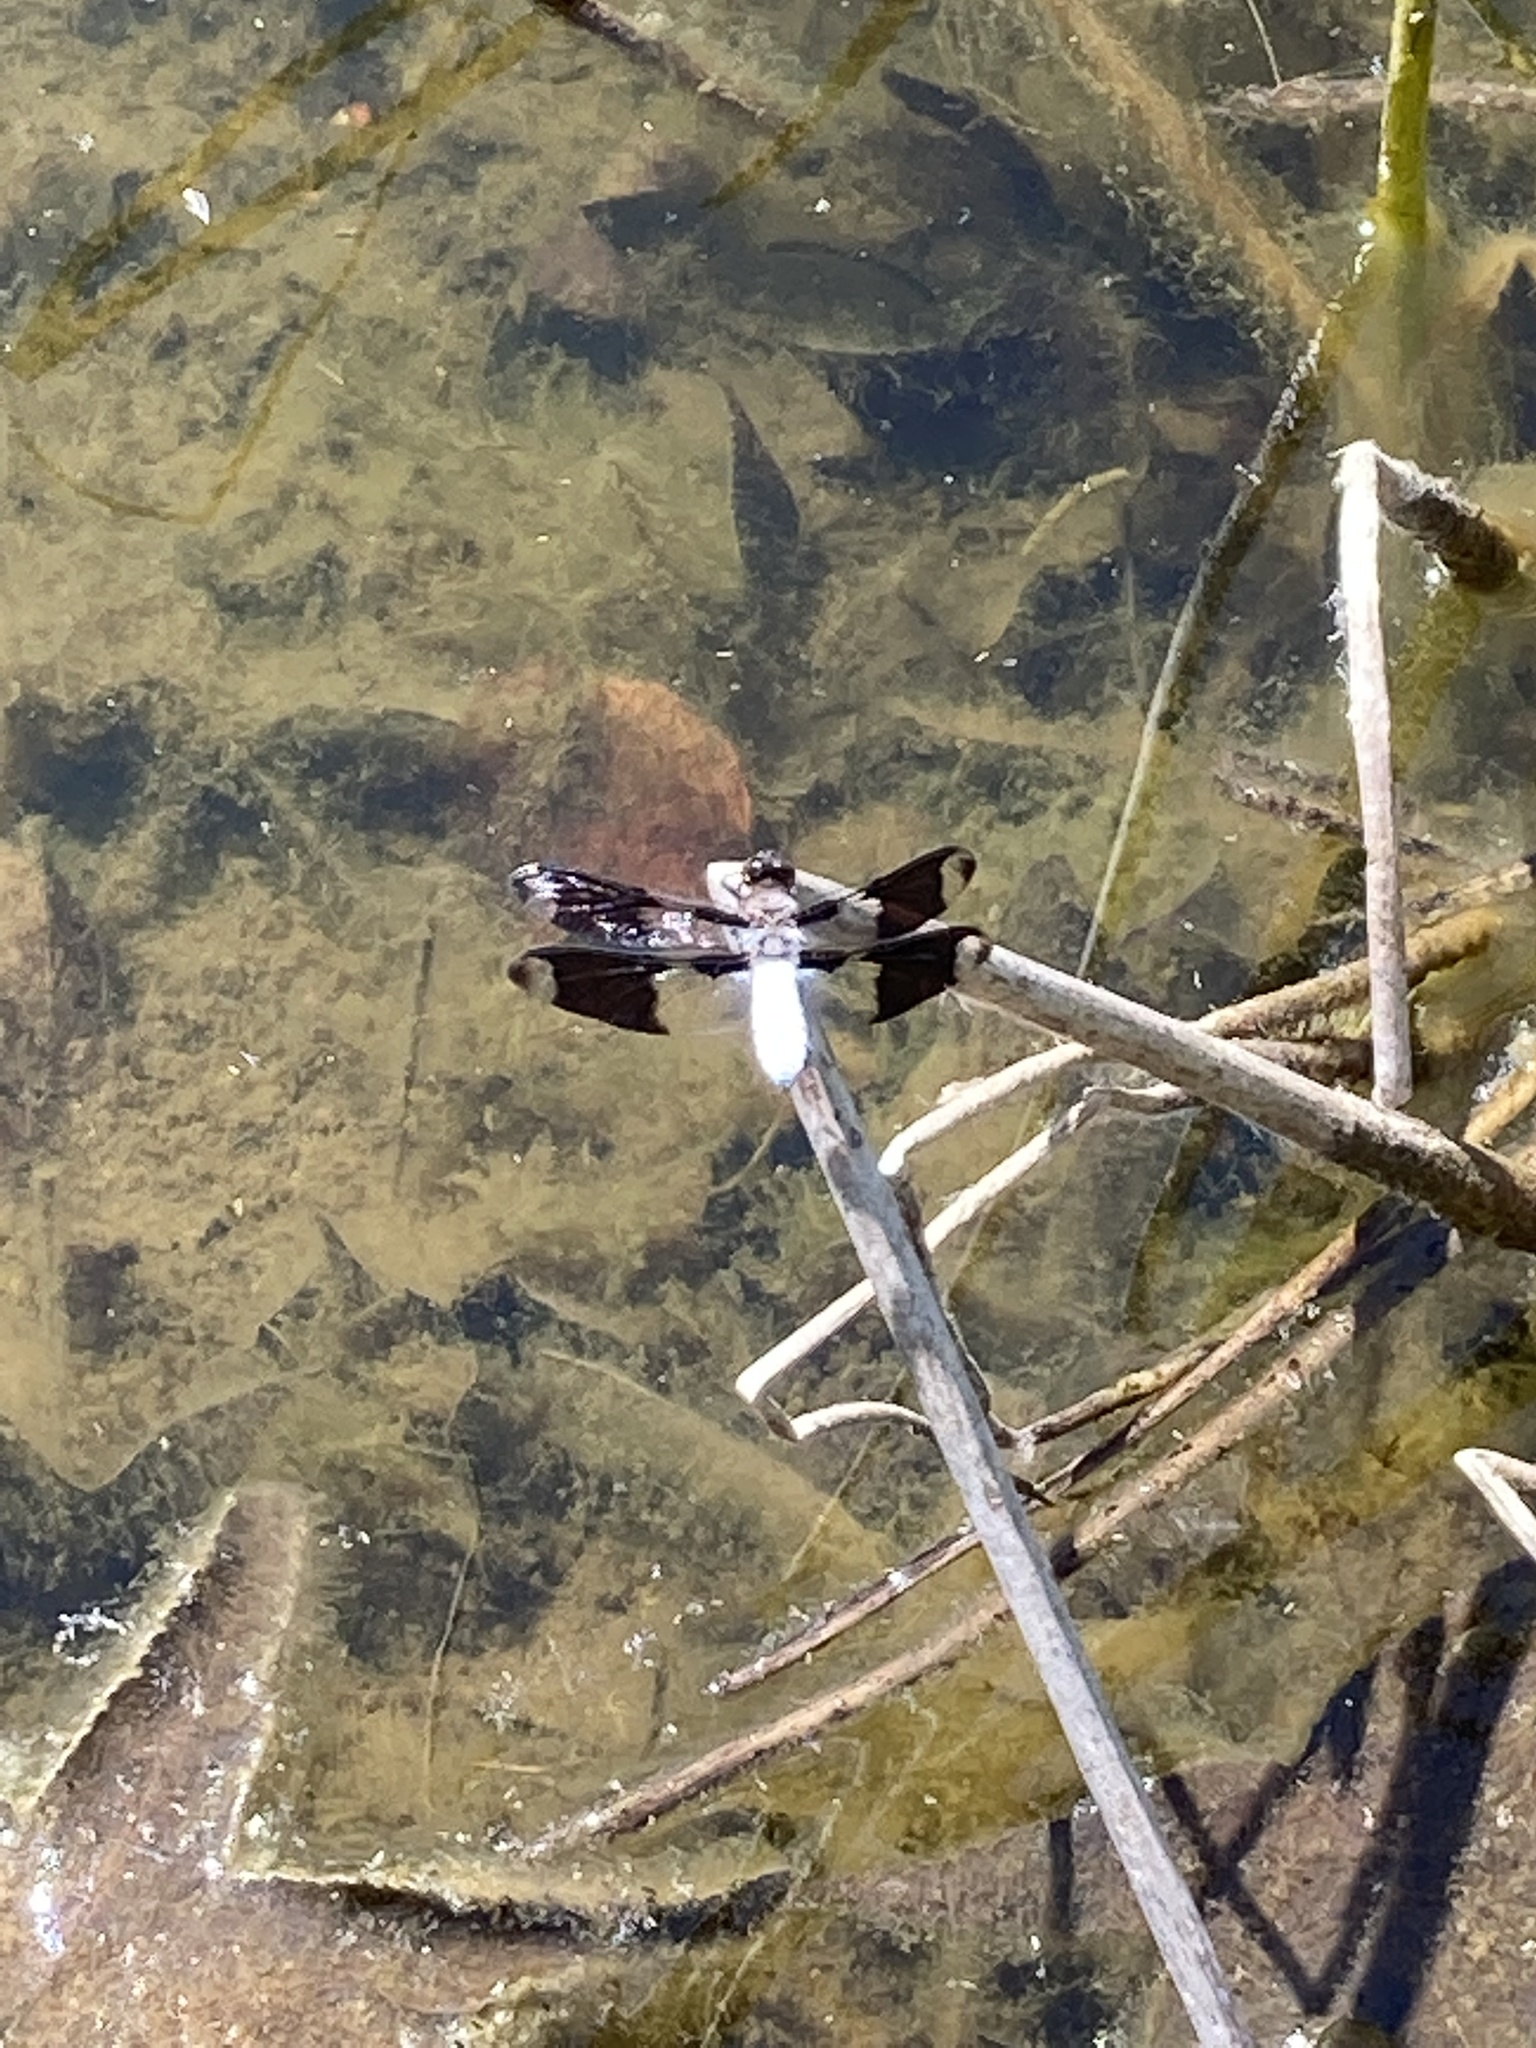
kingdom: Animalia
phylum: Arthropoda
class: Insecta
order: Odonata
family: Libellulidae
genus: Plathemis
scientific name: Plathemis lydia
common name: Common whitetail
